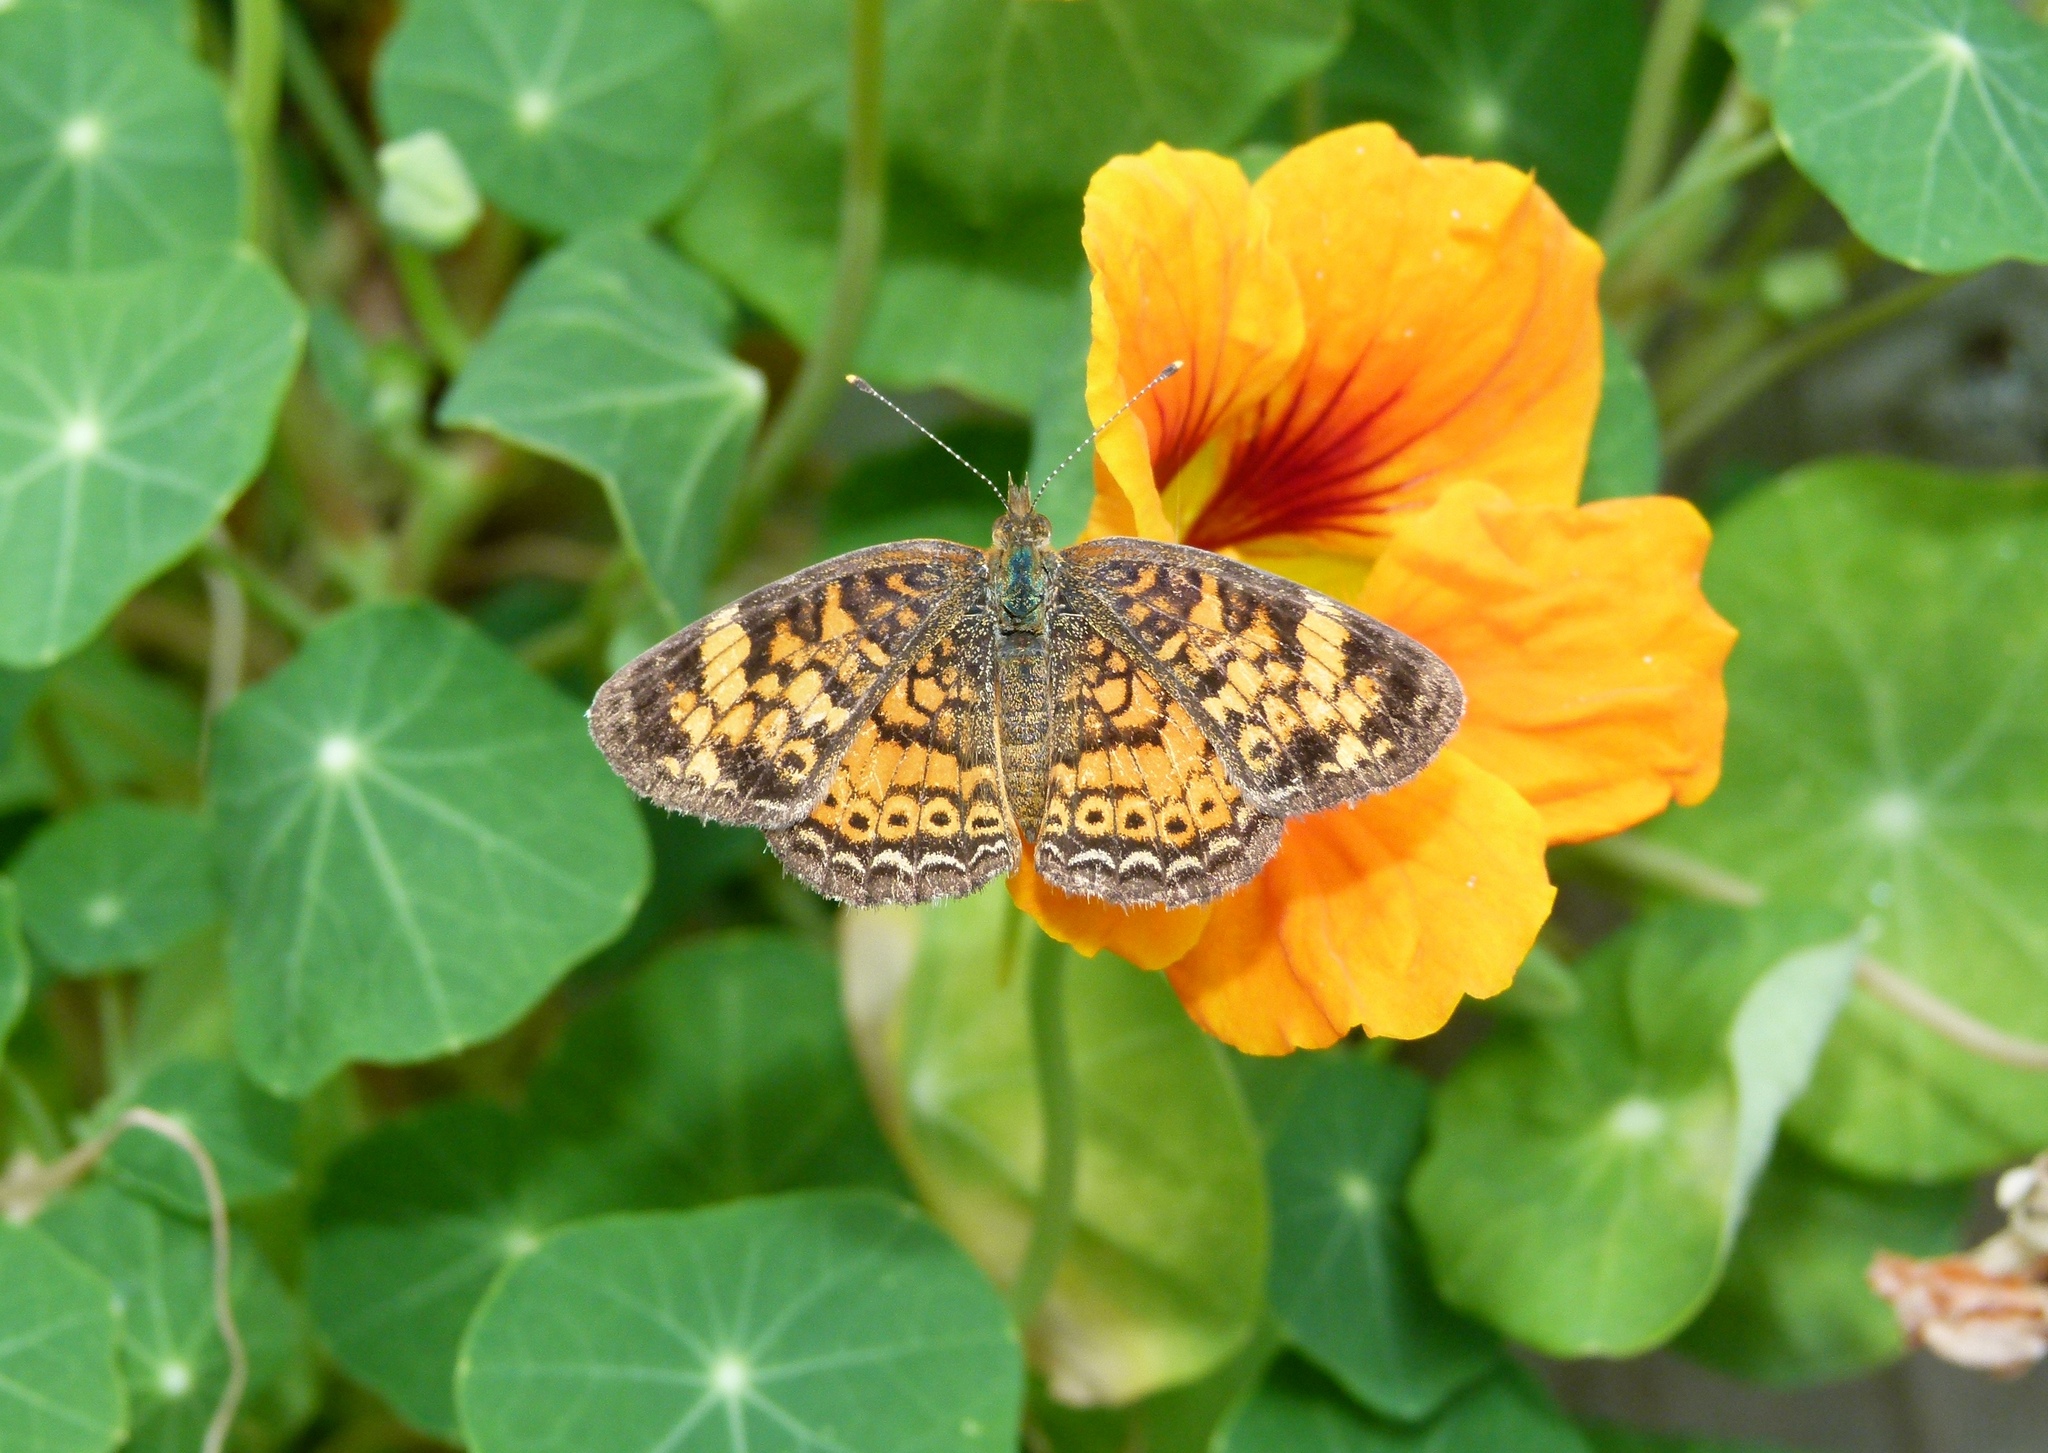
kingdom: Animalia
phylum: Arthropoda
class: Insecta
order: Lepidoptera
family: Nymphalidae
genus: Phyciodes
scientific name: Phyciodes tharos
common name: Pearl crescent
